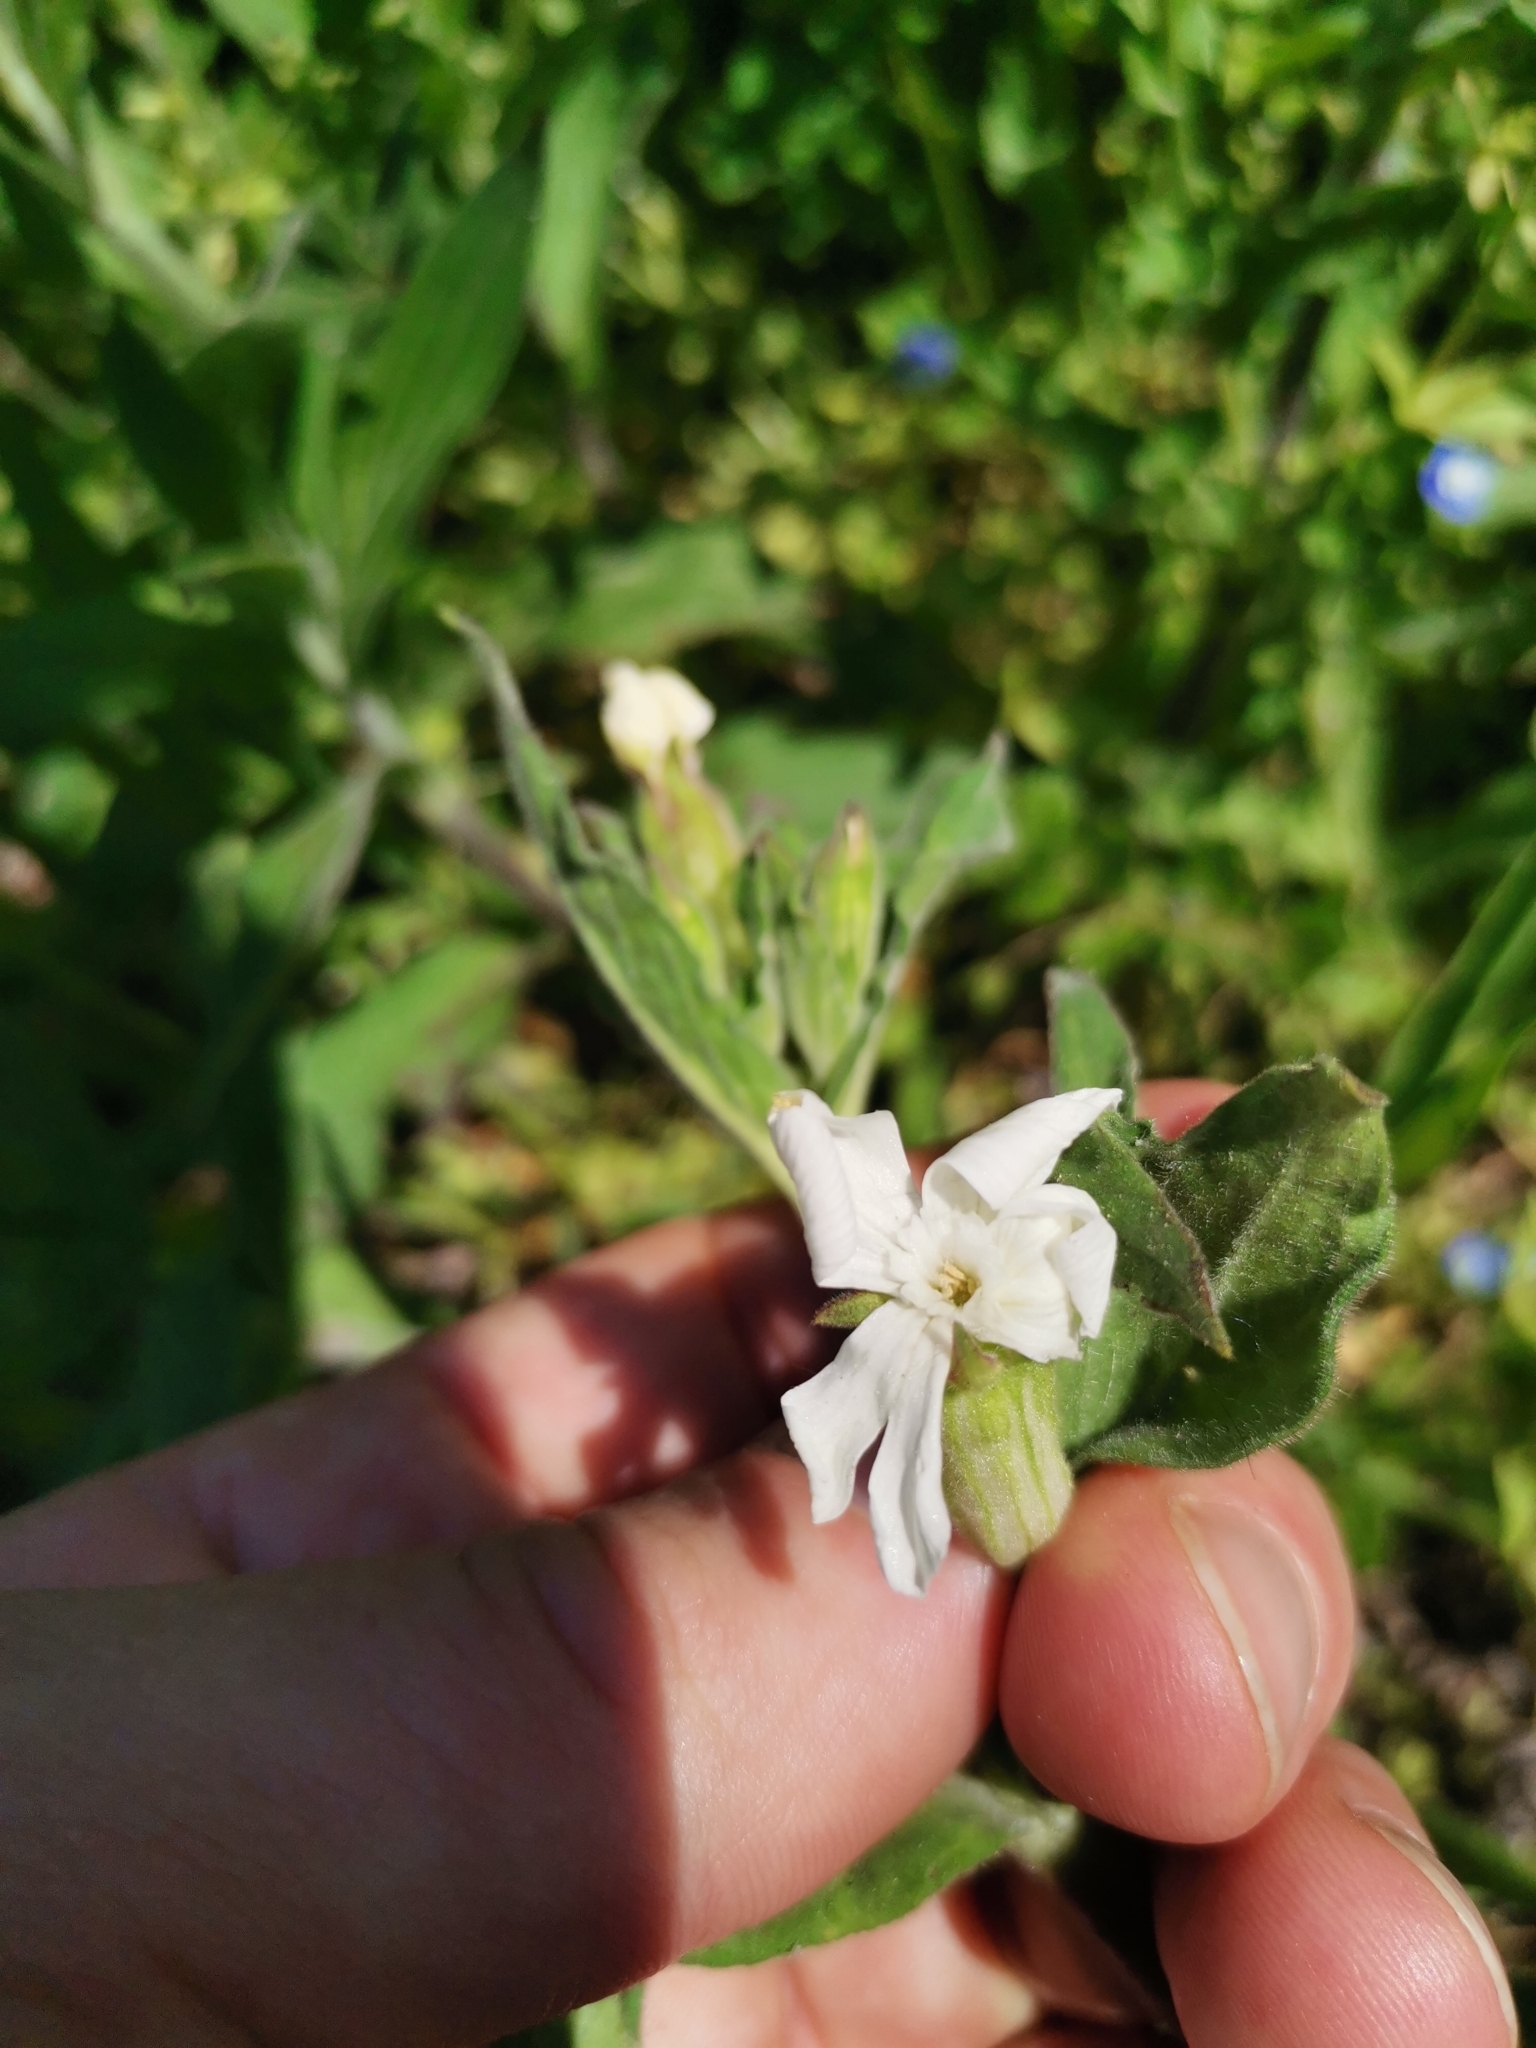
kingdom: Plantae
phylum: Tracheophyta
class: Magnoliopsida
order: Caryophyllales
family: Caryophyllaceae
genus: Silene
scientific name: Silene latifolia
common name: White campion
